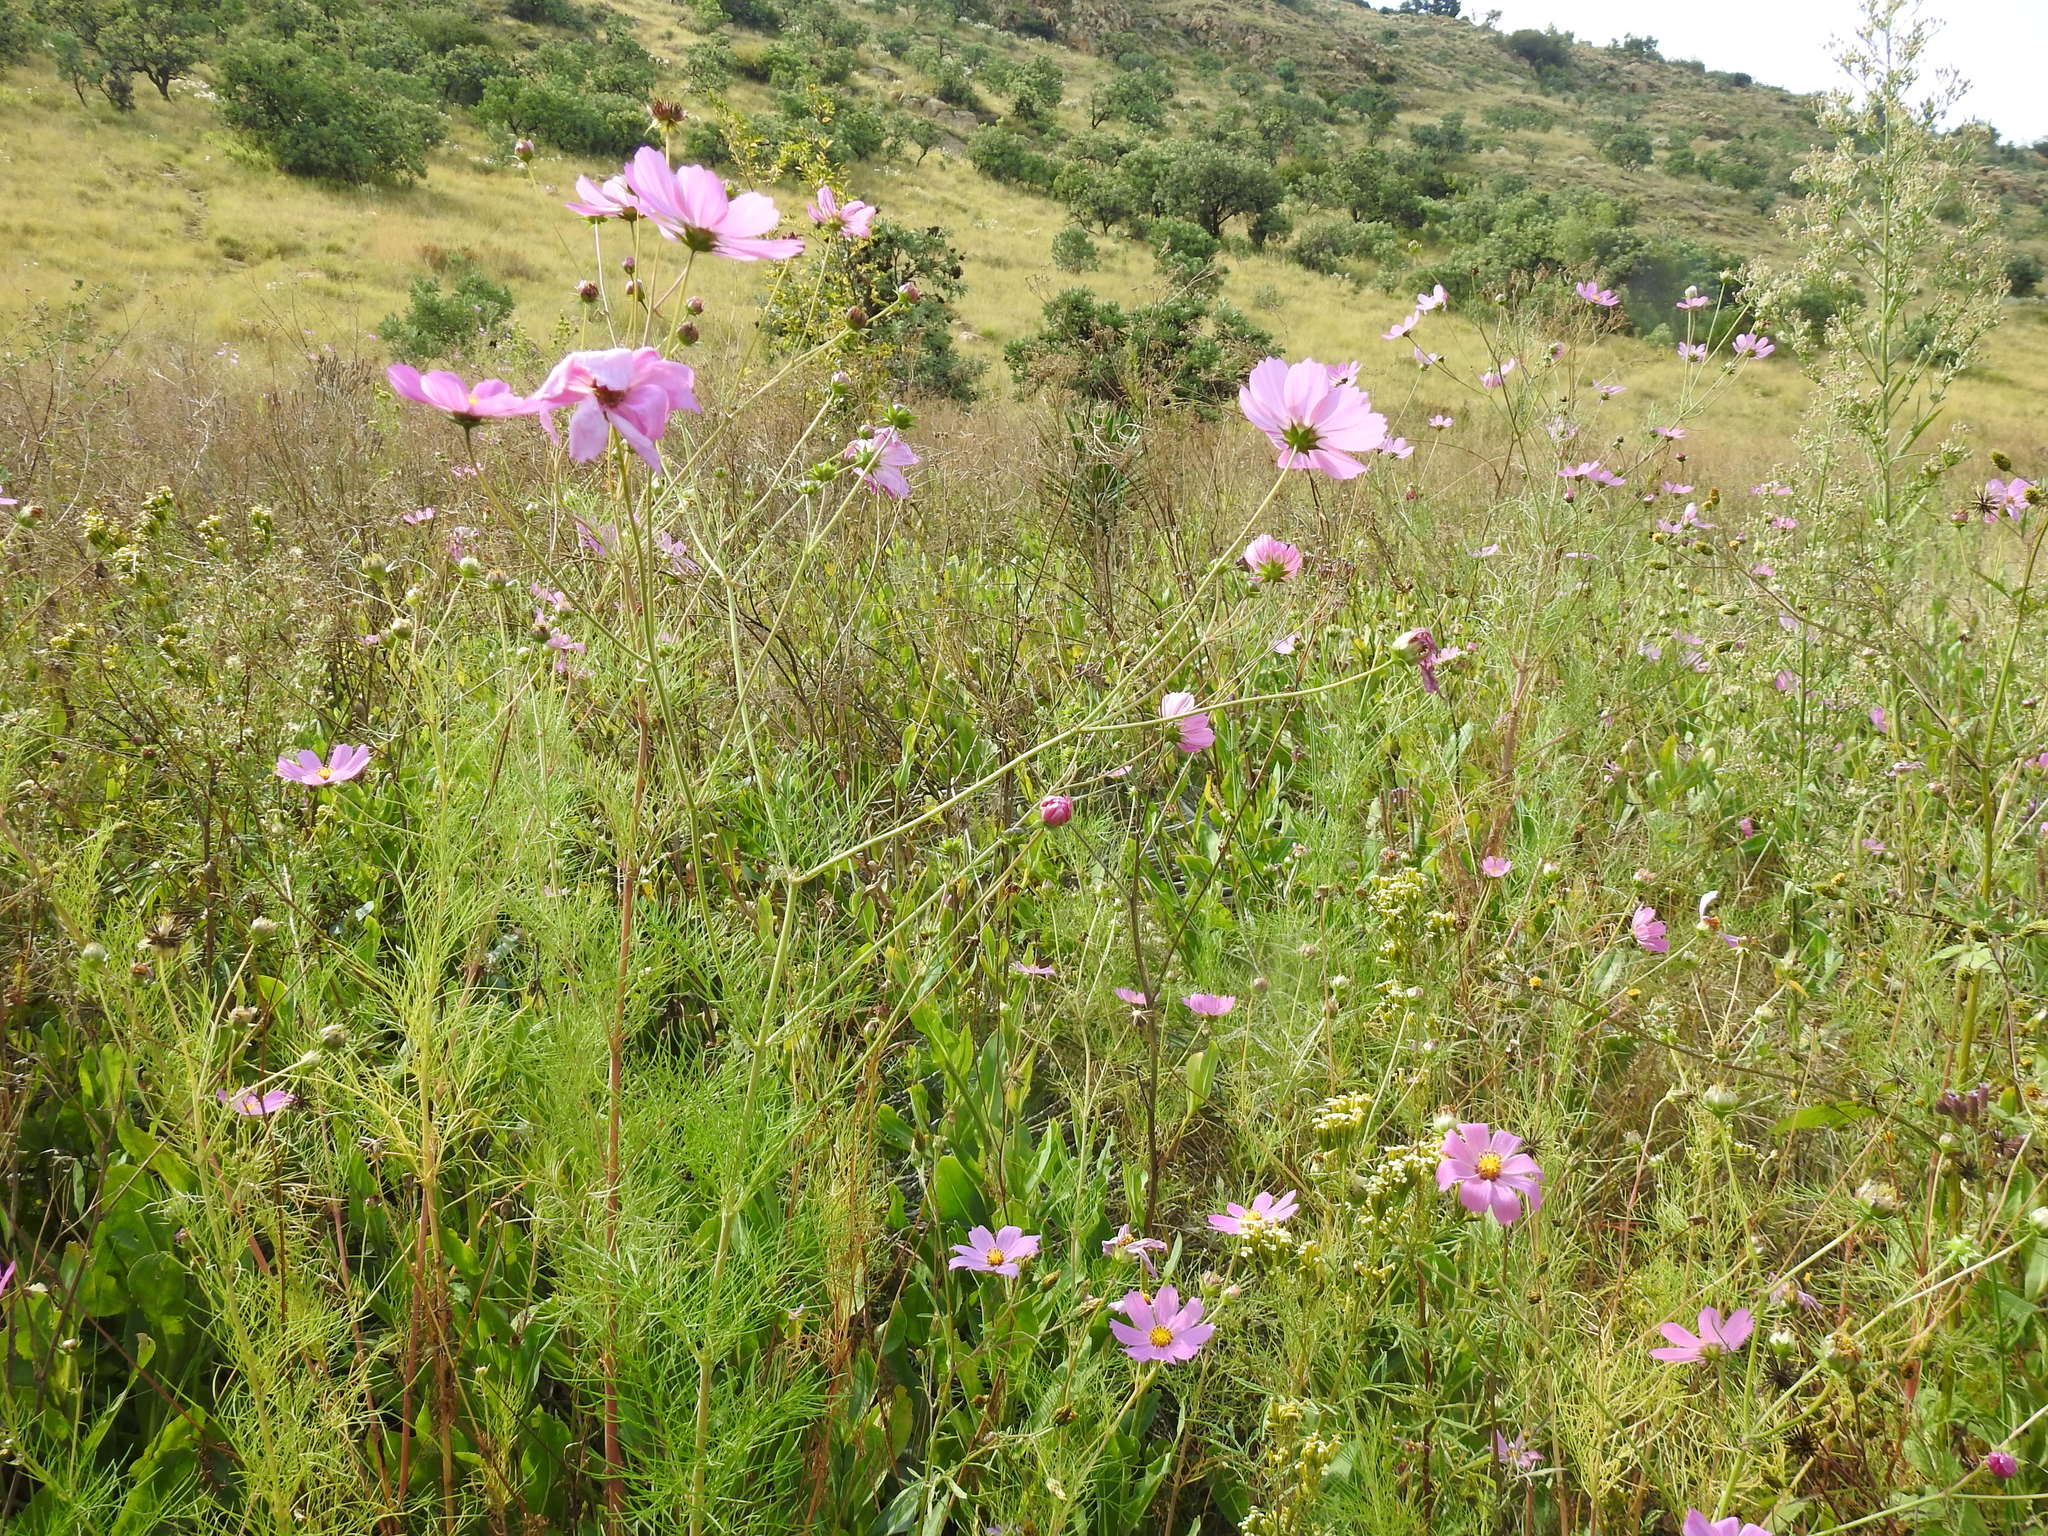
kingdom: Plantae
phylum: Tracheophyta
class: Magnoliopsida
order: Asterales
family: Asteraceae
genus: Cosmos
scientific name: Cosmos bipinnatus
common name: Garden cosmos
